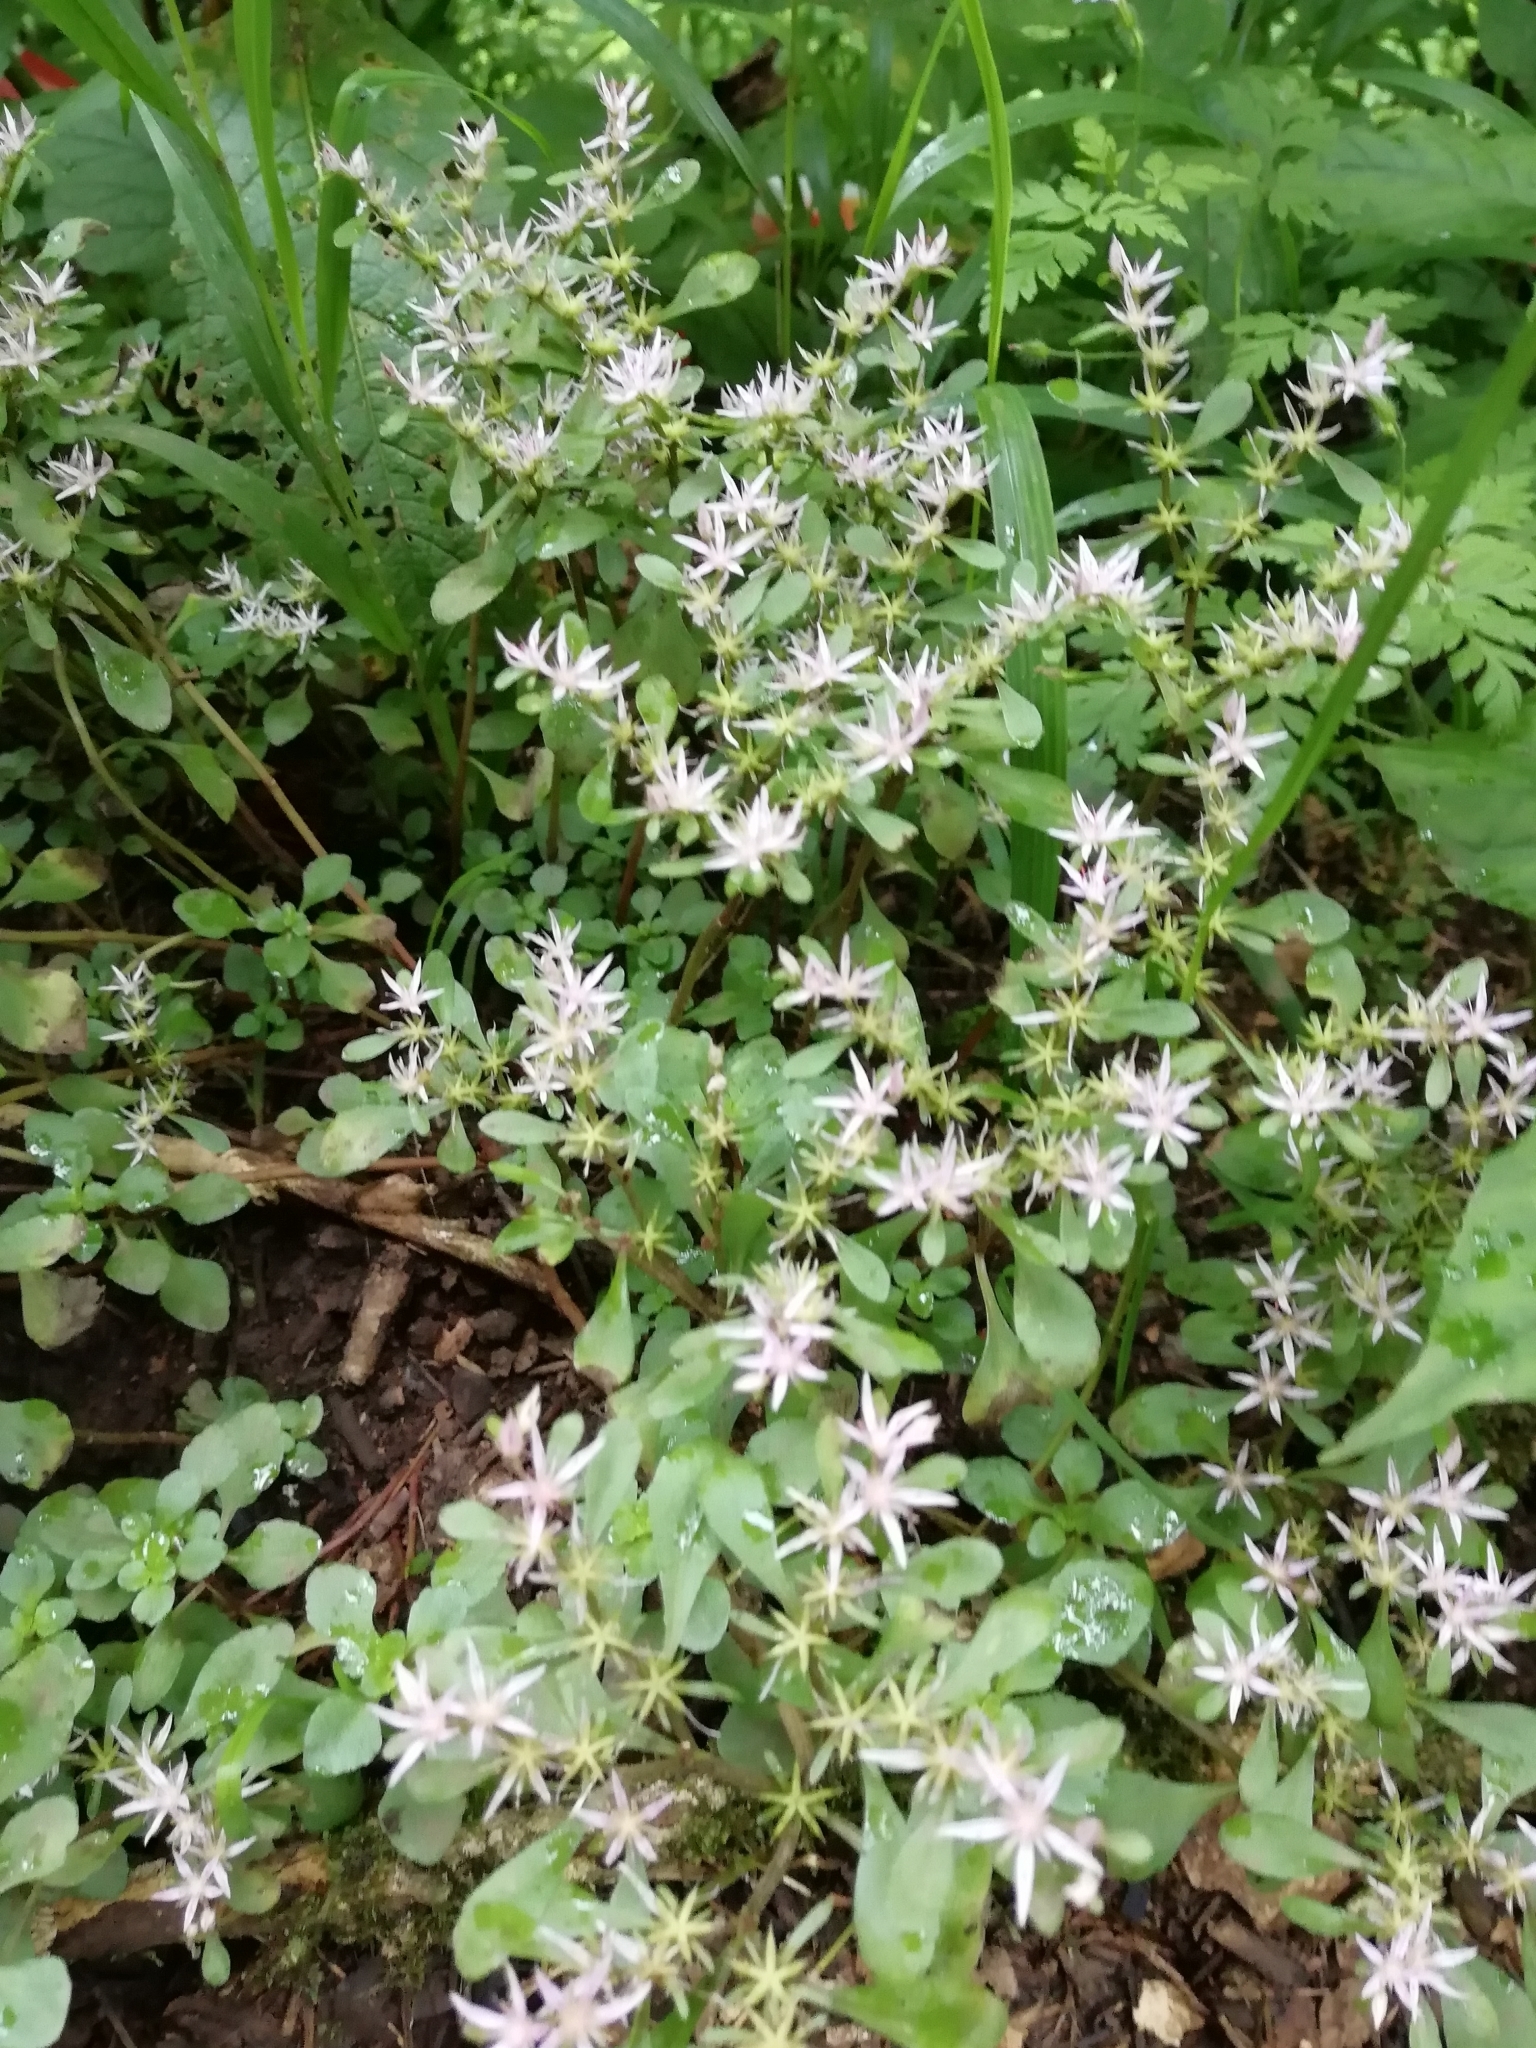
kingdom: Plantae
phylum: Tracheophyta
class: Magnoliopsida
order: Saxifragales
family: Crassulaceae
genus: Phedimus
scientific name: Phedimus stolonifer
